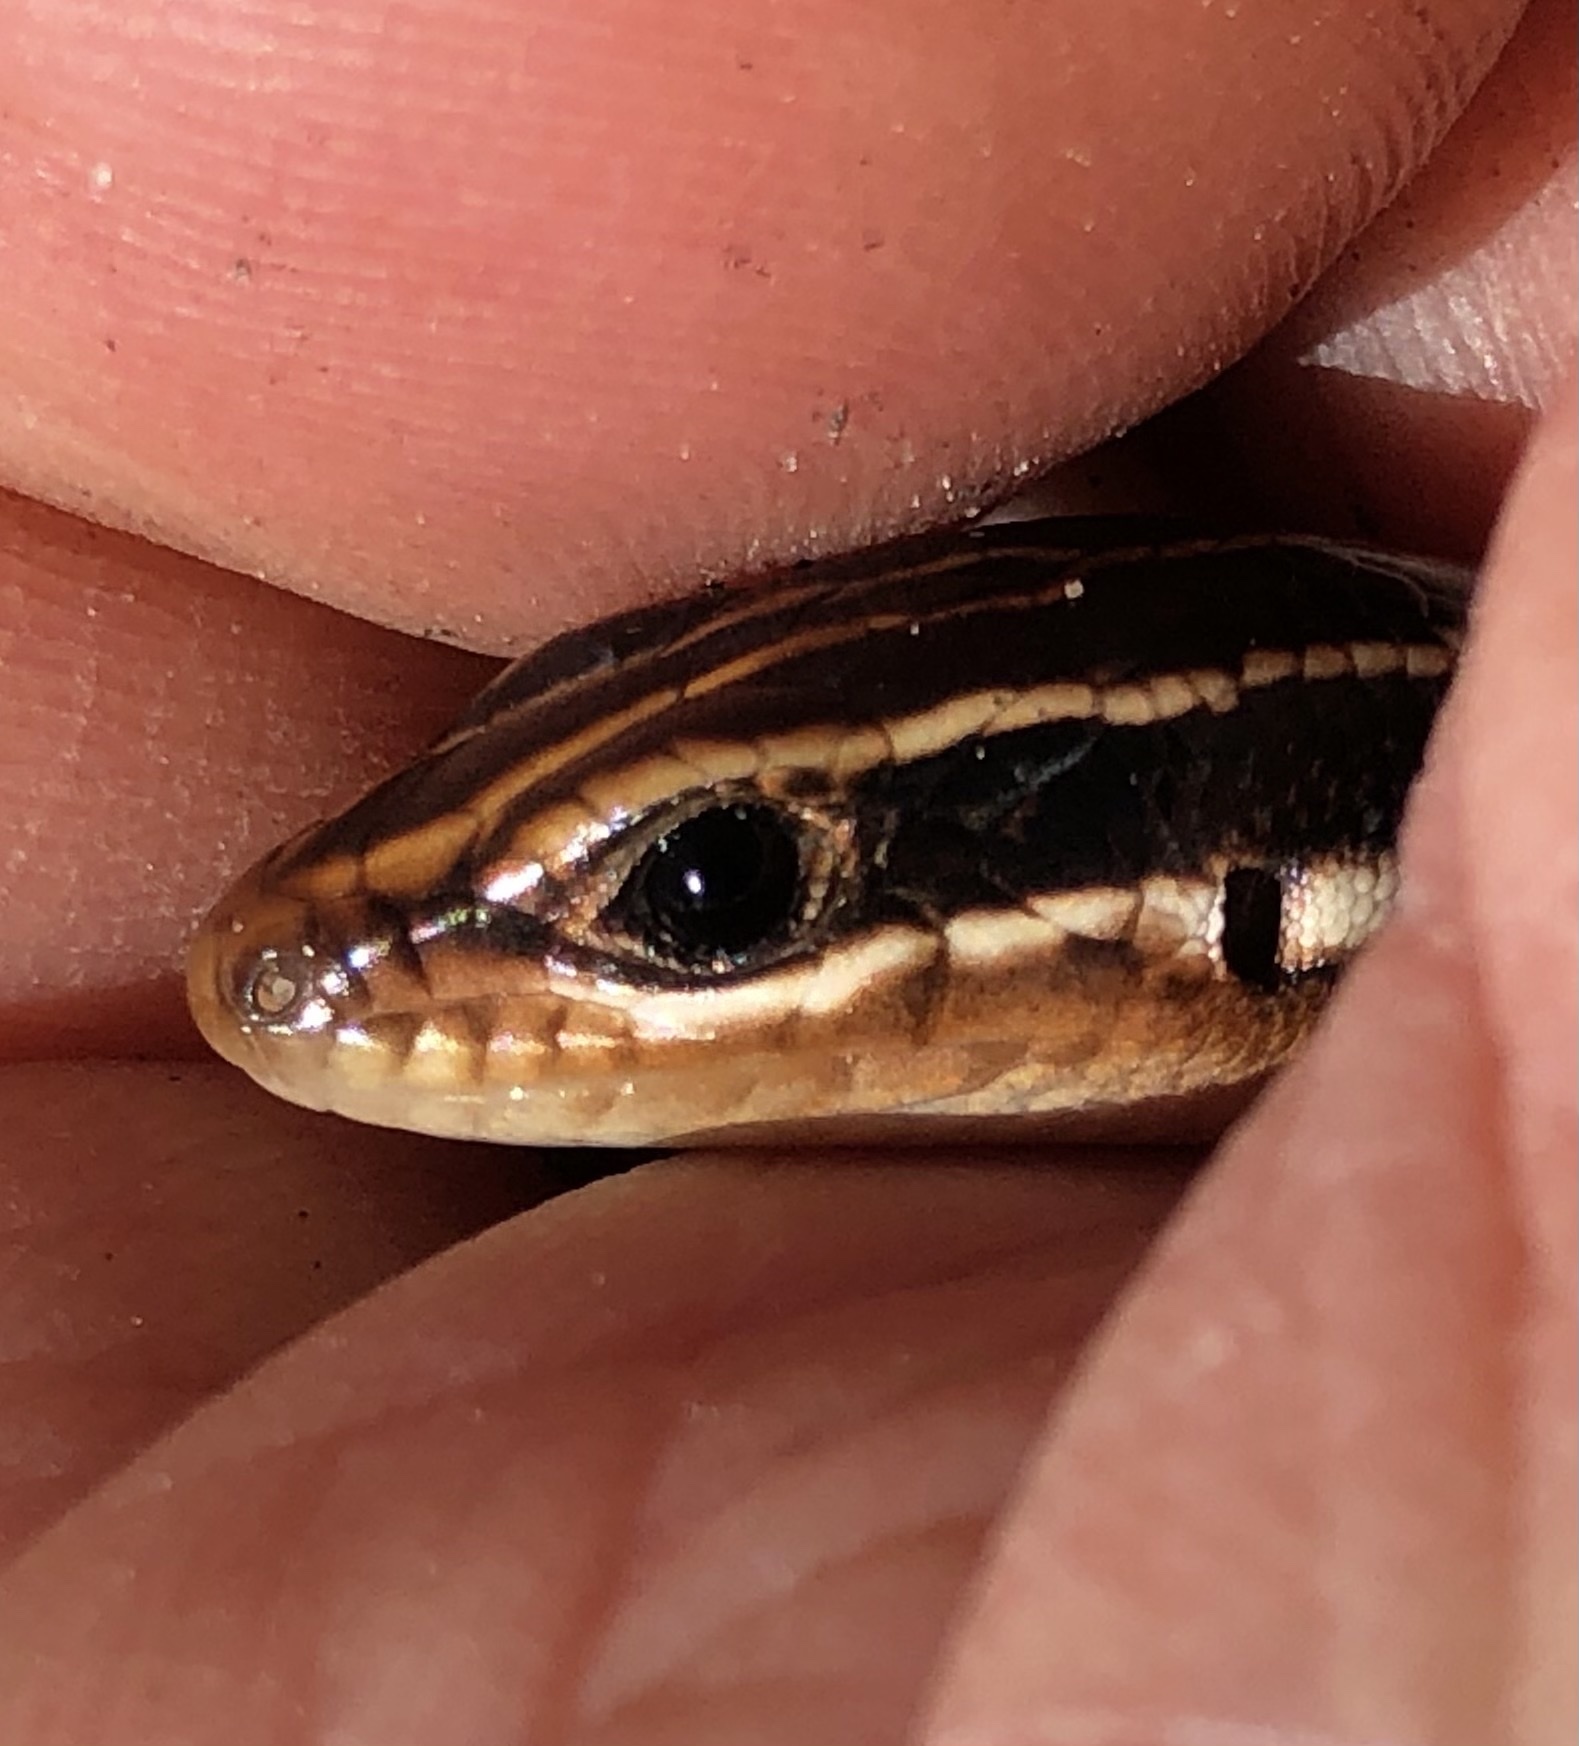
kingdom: Animalia
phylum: Chordata
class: Squamata
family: Scincidae
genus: Plestiodon
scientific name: Plestiodon laticeps
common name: Broadhead skink
